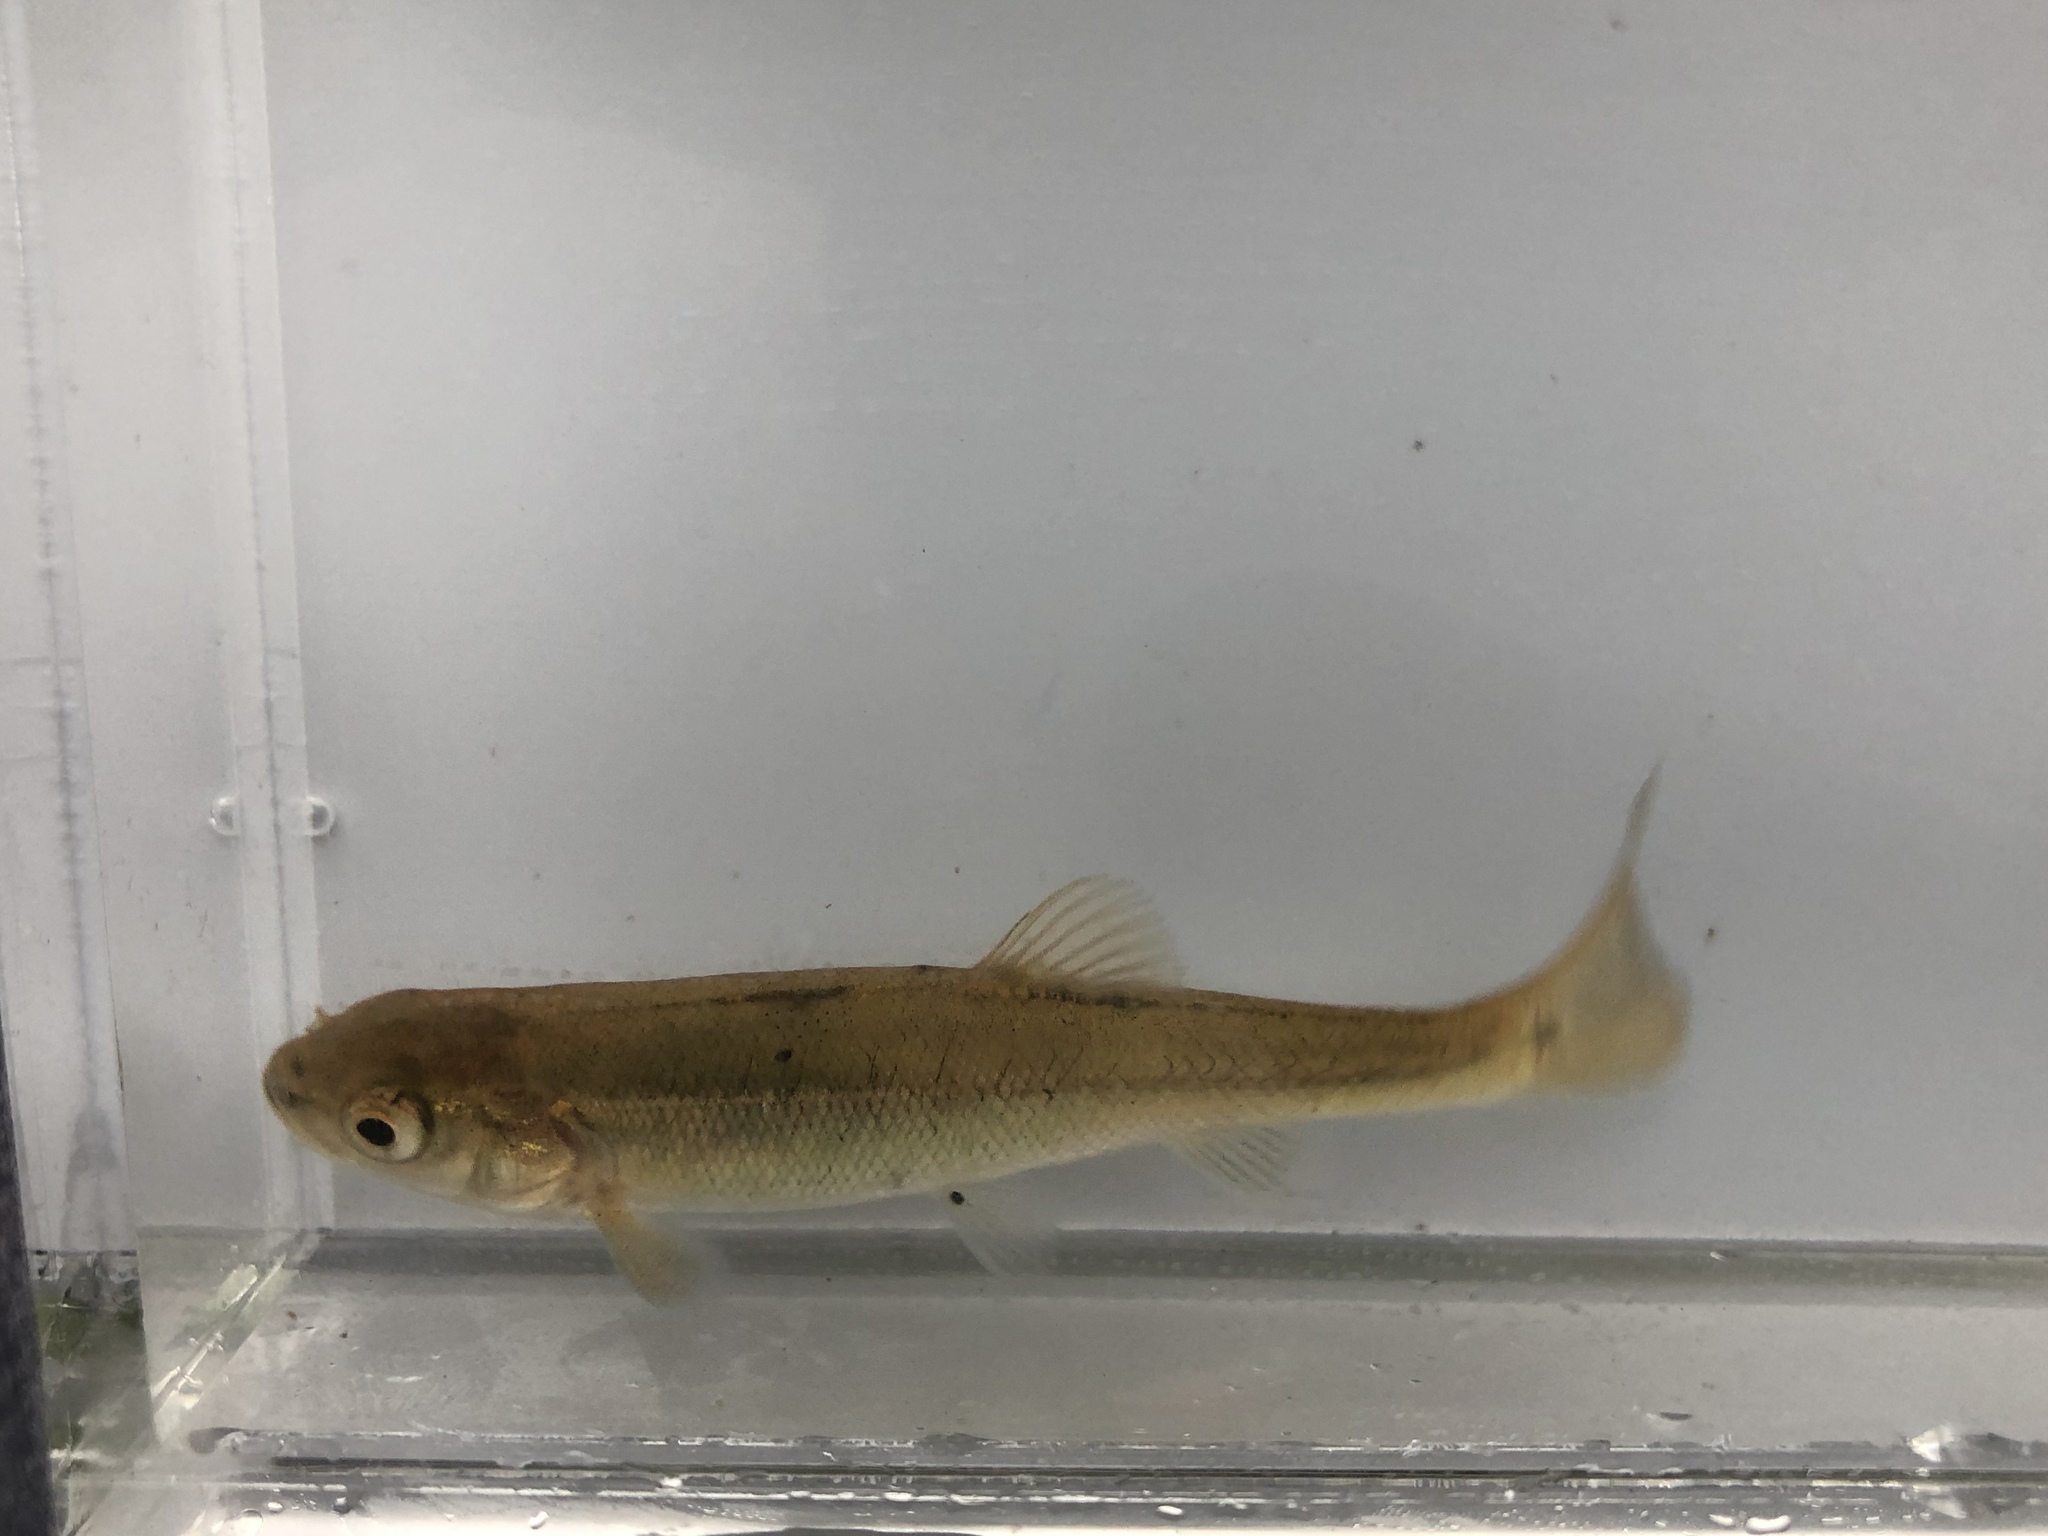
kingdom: Animalia
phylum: Chordata
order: Cypriniformes
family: Cyprinidae
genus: Semotilus
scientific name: Semotilus atromaculatus
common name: Creek chub
